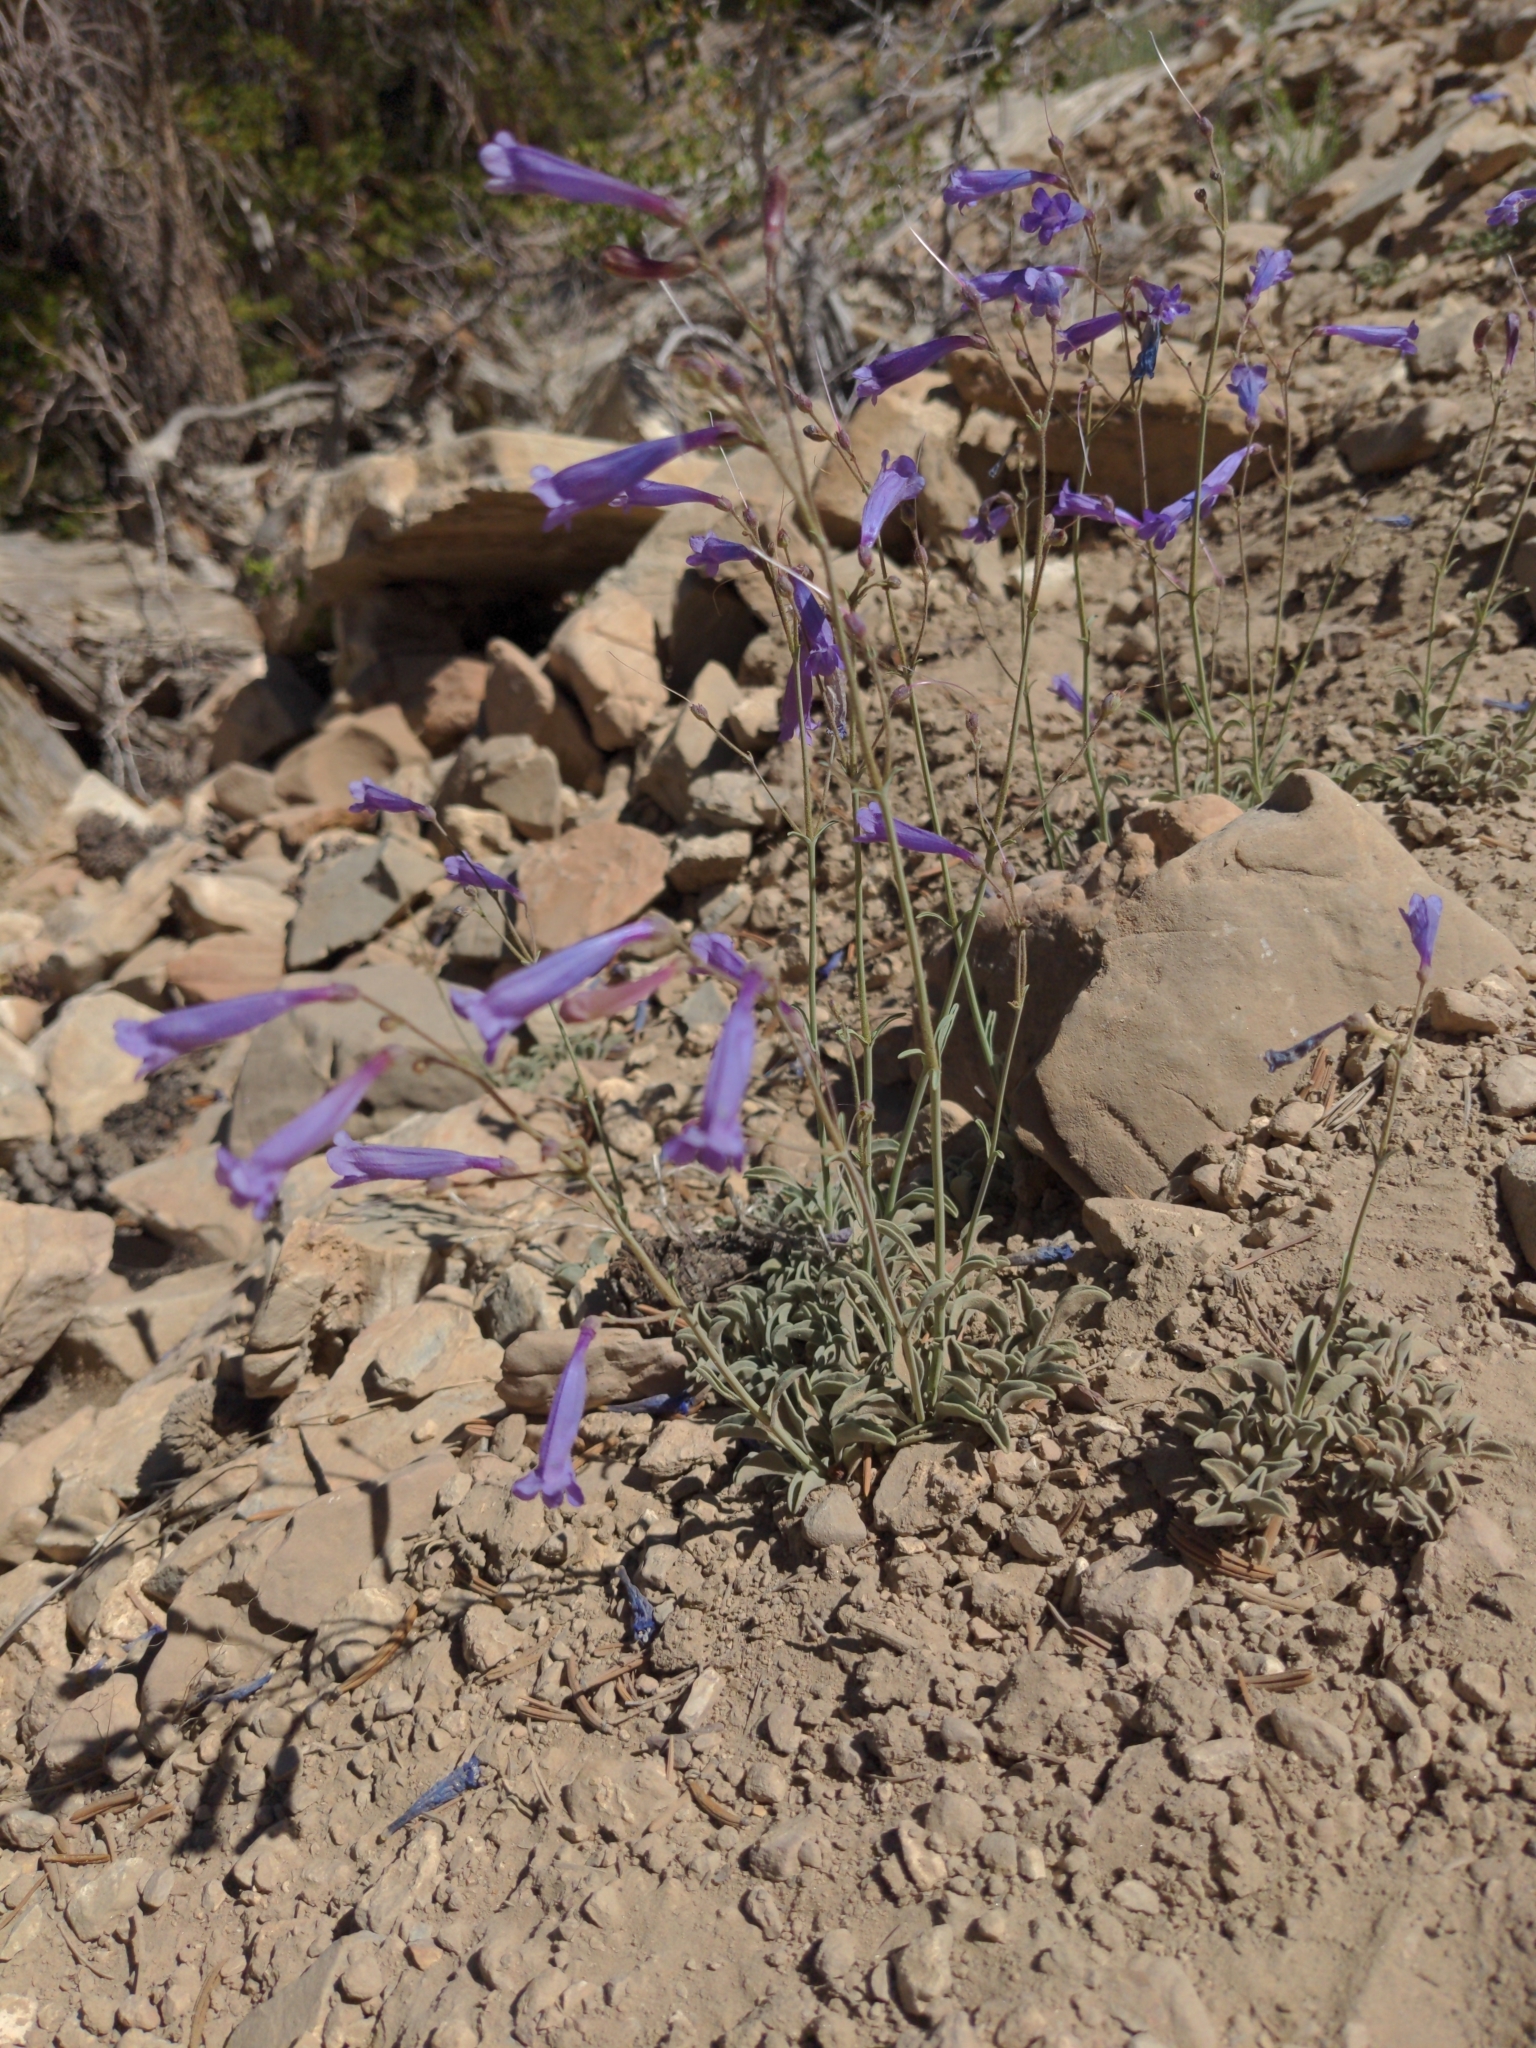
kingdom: Plantae
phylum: Tracheophyta
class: Magnoliopsida
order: Lamiales
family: Plantaginaceae
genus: Penstemon
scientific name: Penstemon scapoides
